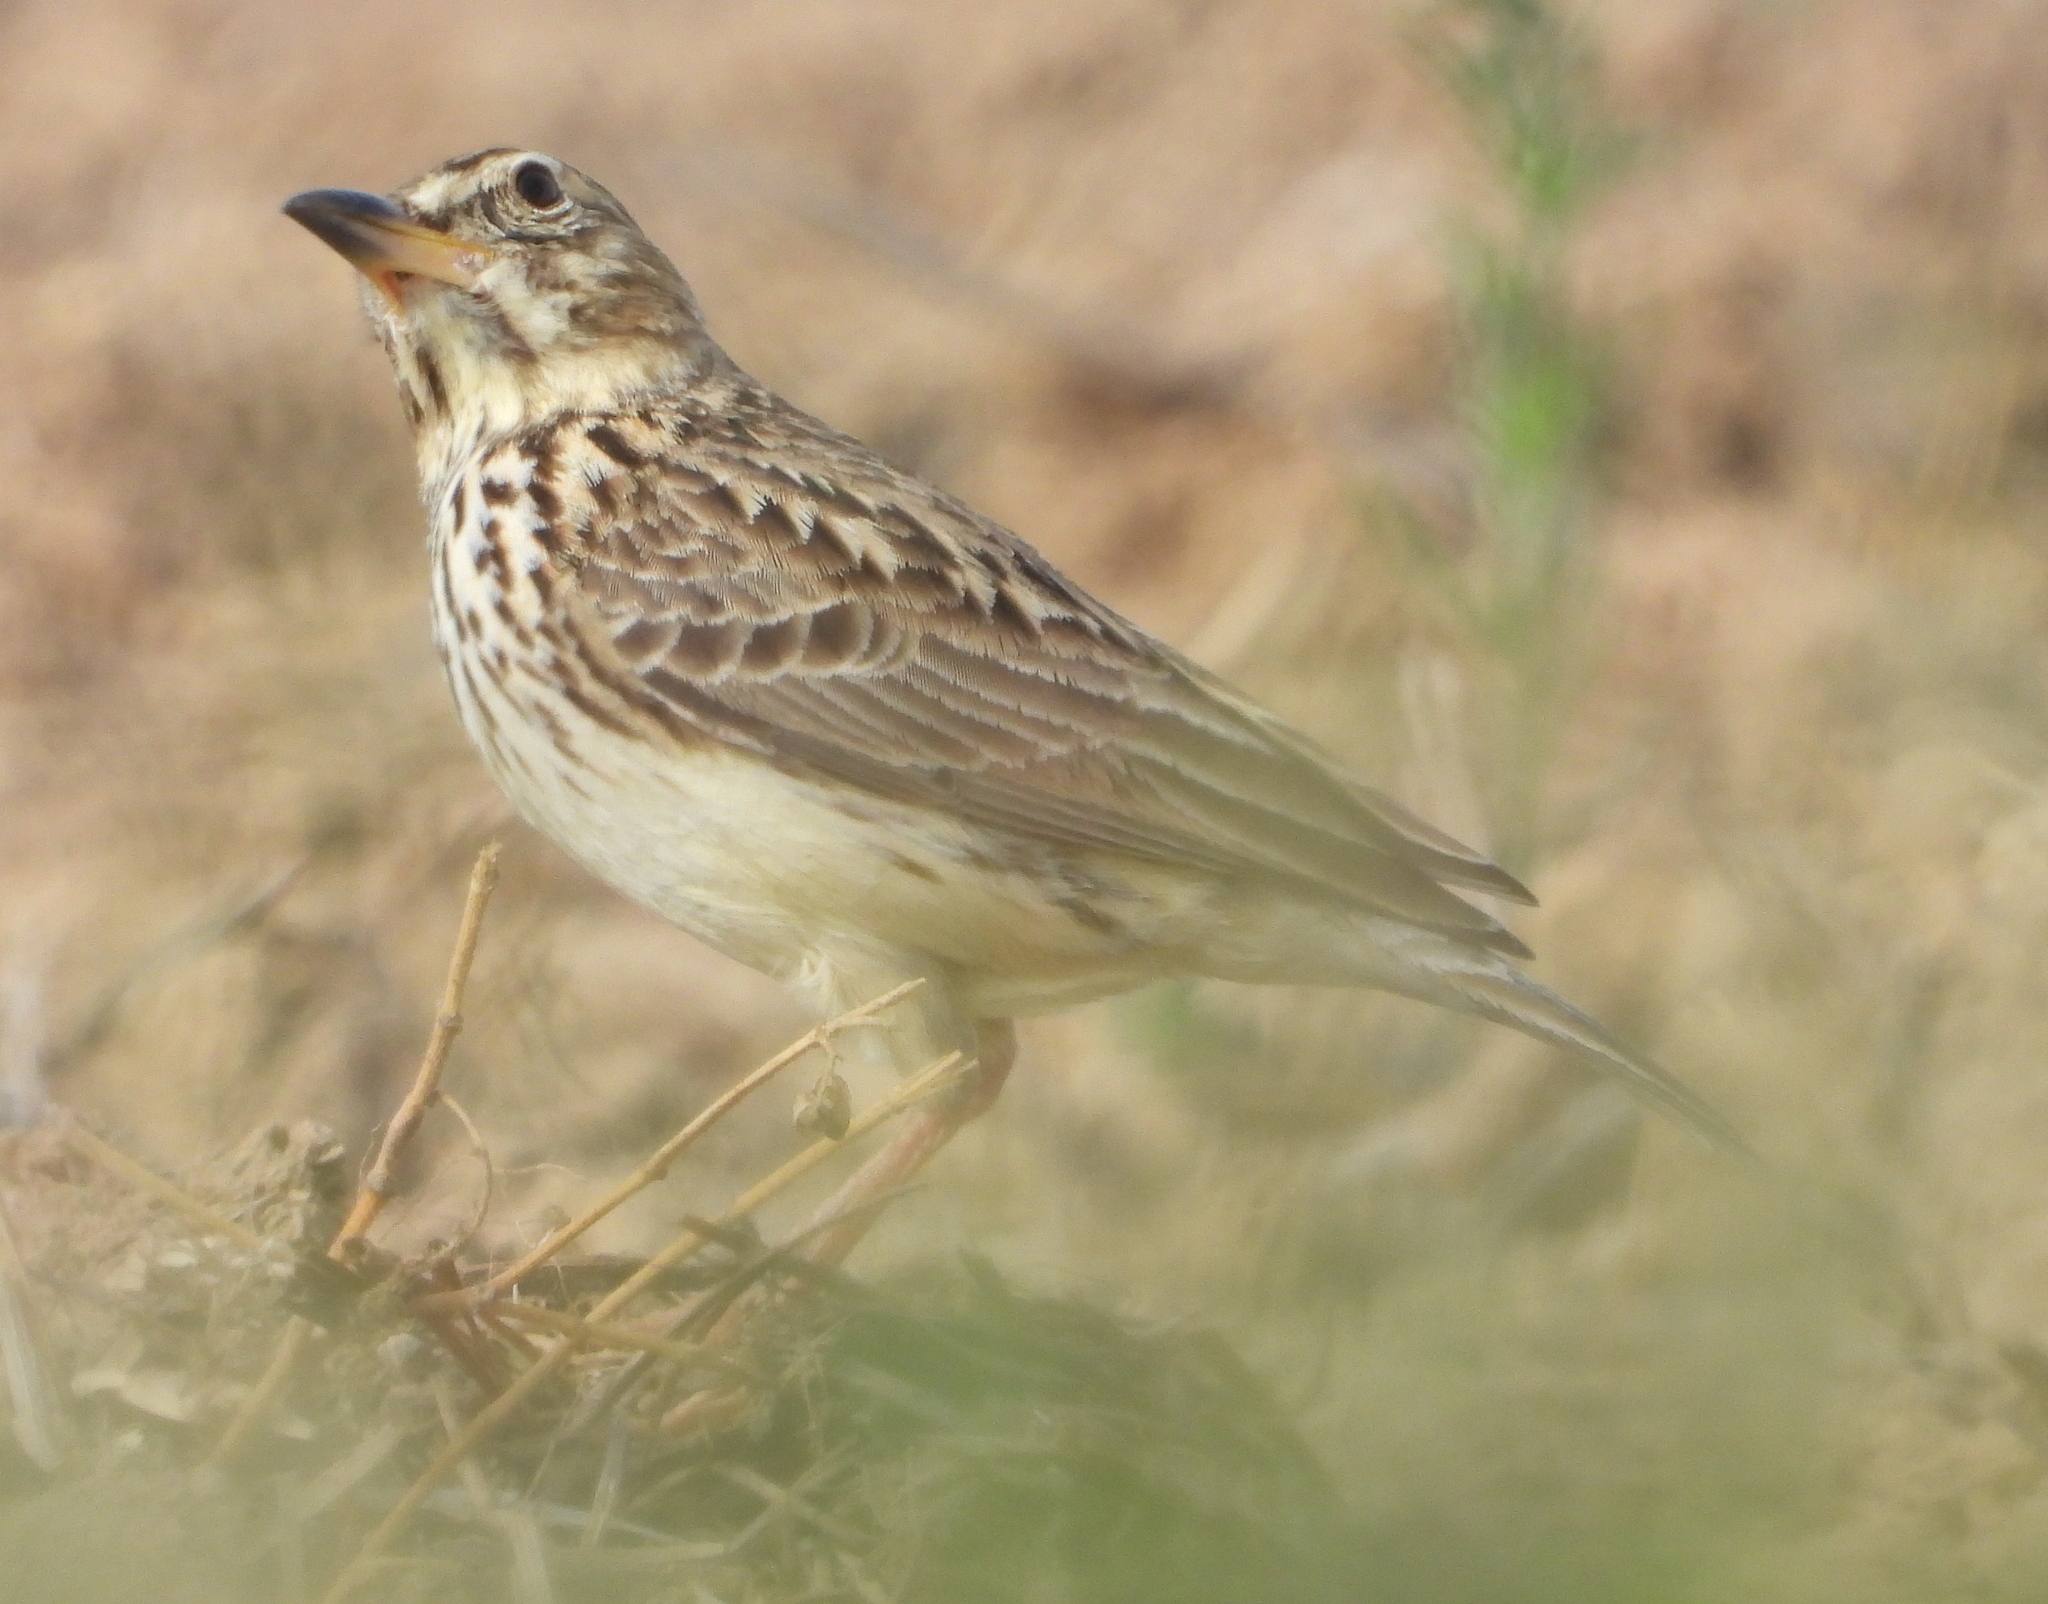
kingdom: Animalia
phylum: Chordata
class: Aves
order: Passeriformes
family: Alaudidae
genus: Galerida
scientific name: Galerida magnirostris
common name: Large-billed lark
